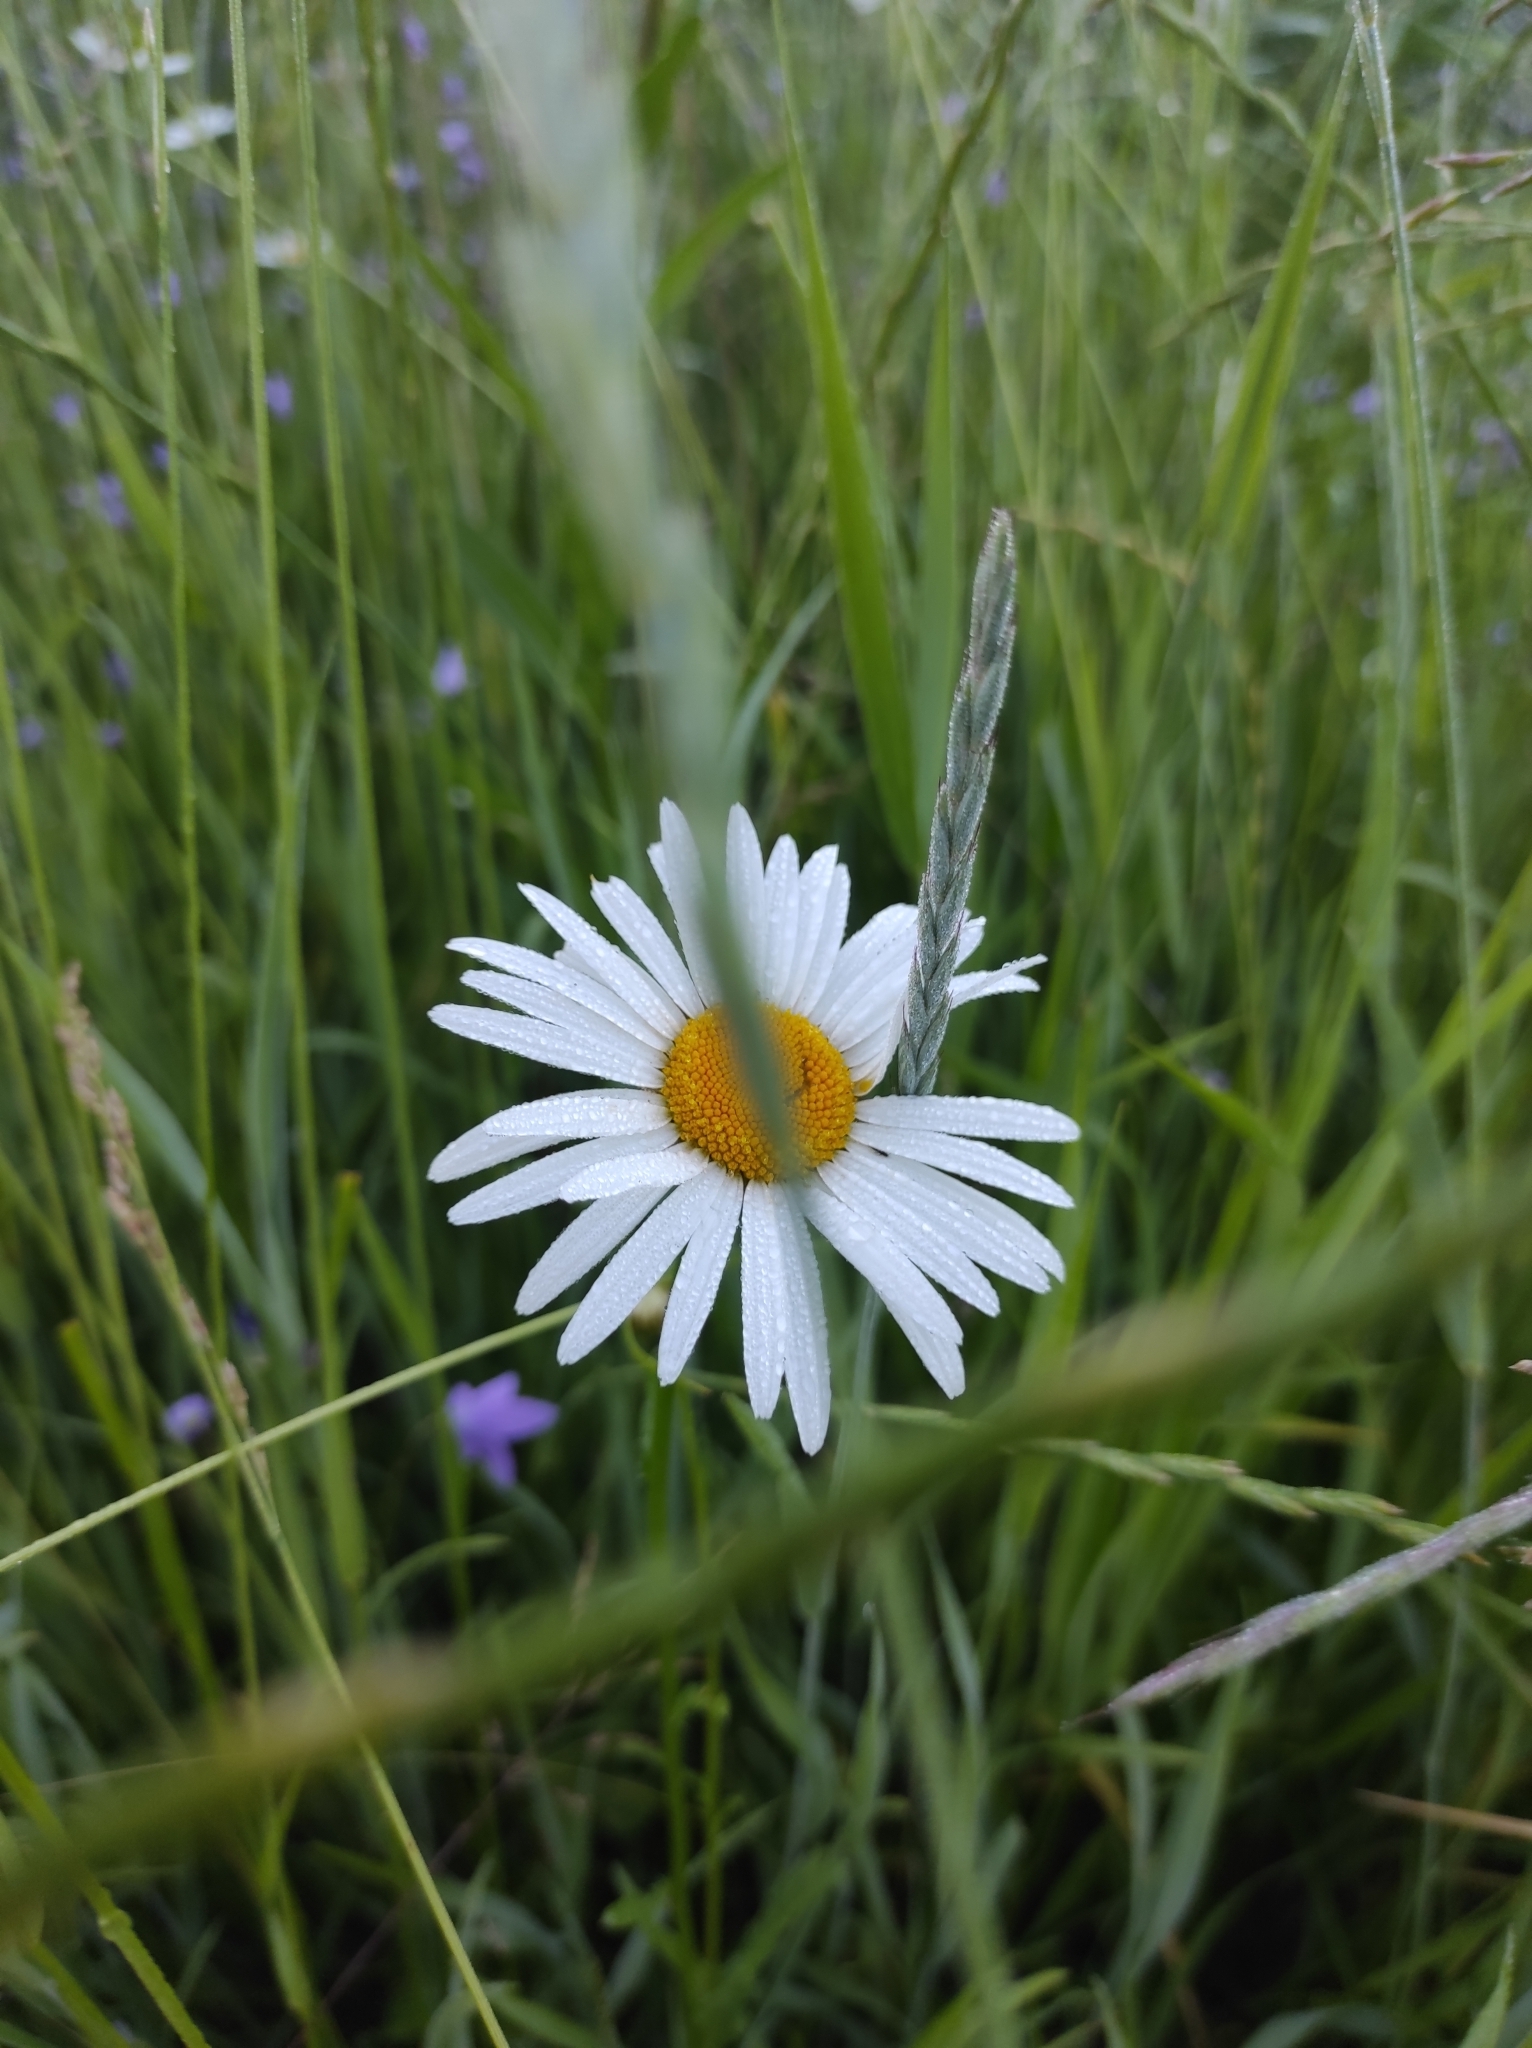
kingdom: Plantae
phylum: Tracheophyta
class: Magnoliopsida
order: Asterales
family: Asteraceae
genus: Leucanthemum
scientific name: Leucanthemum vulgare
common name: Oxeye daisy
